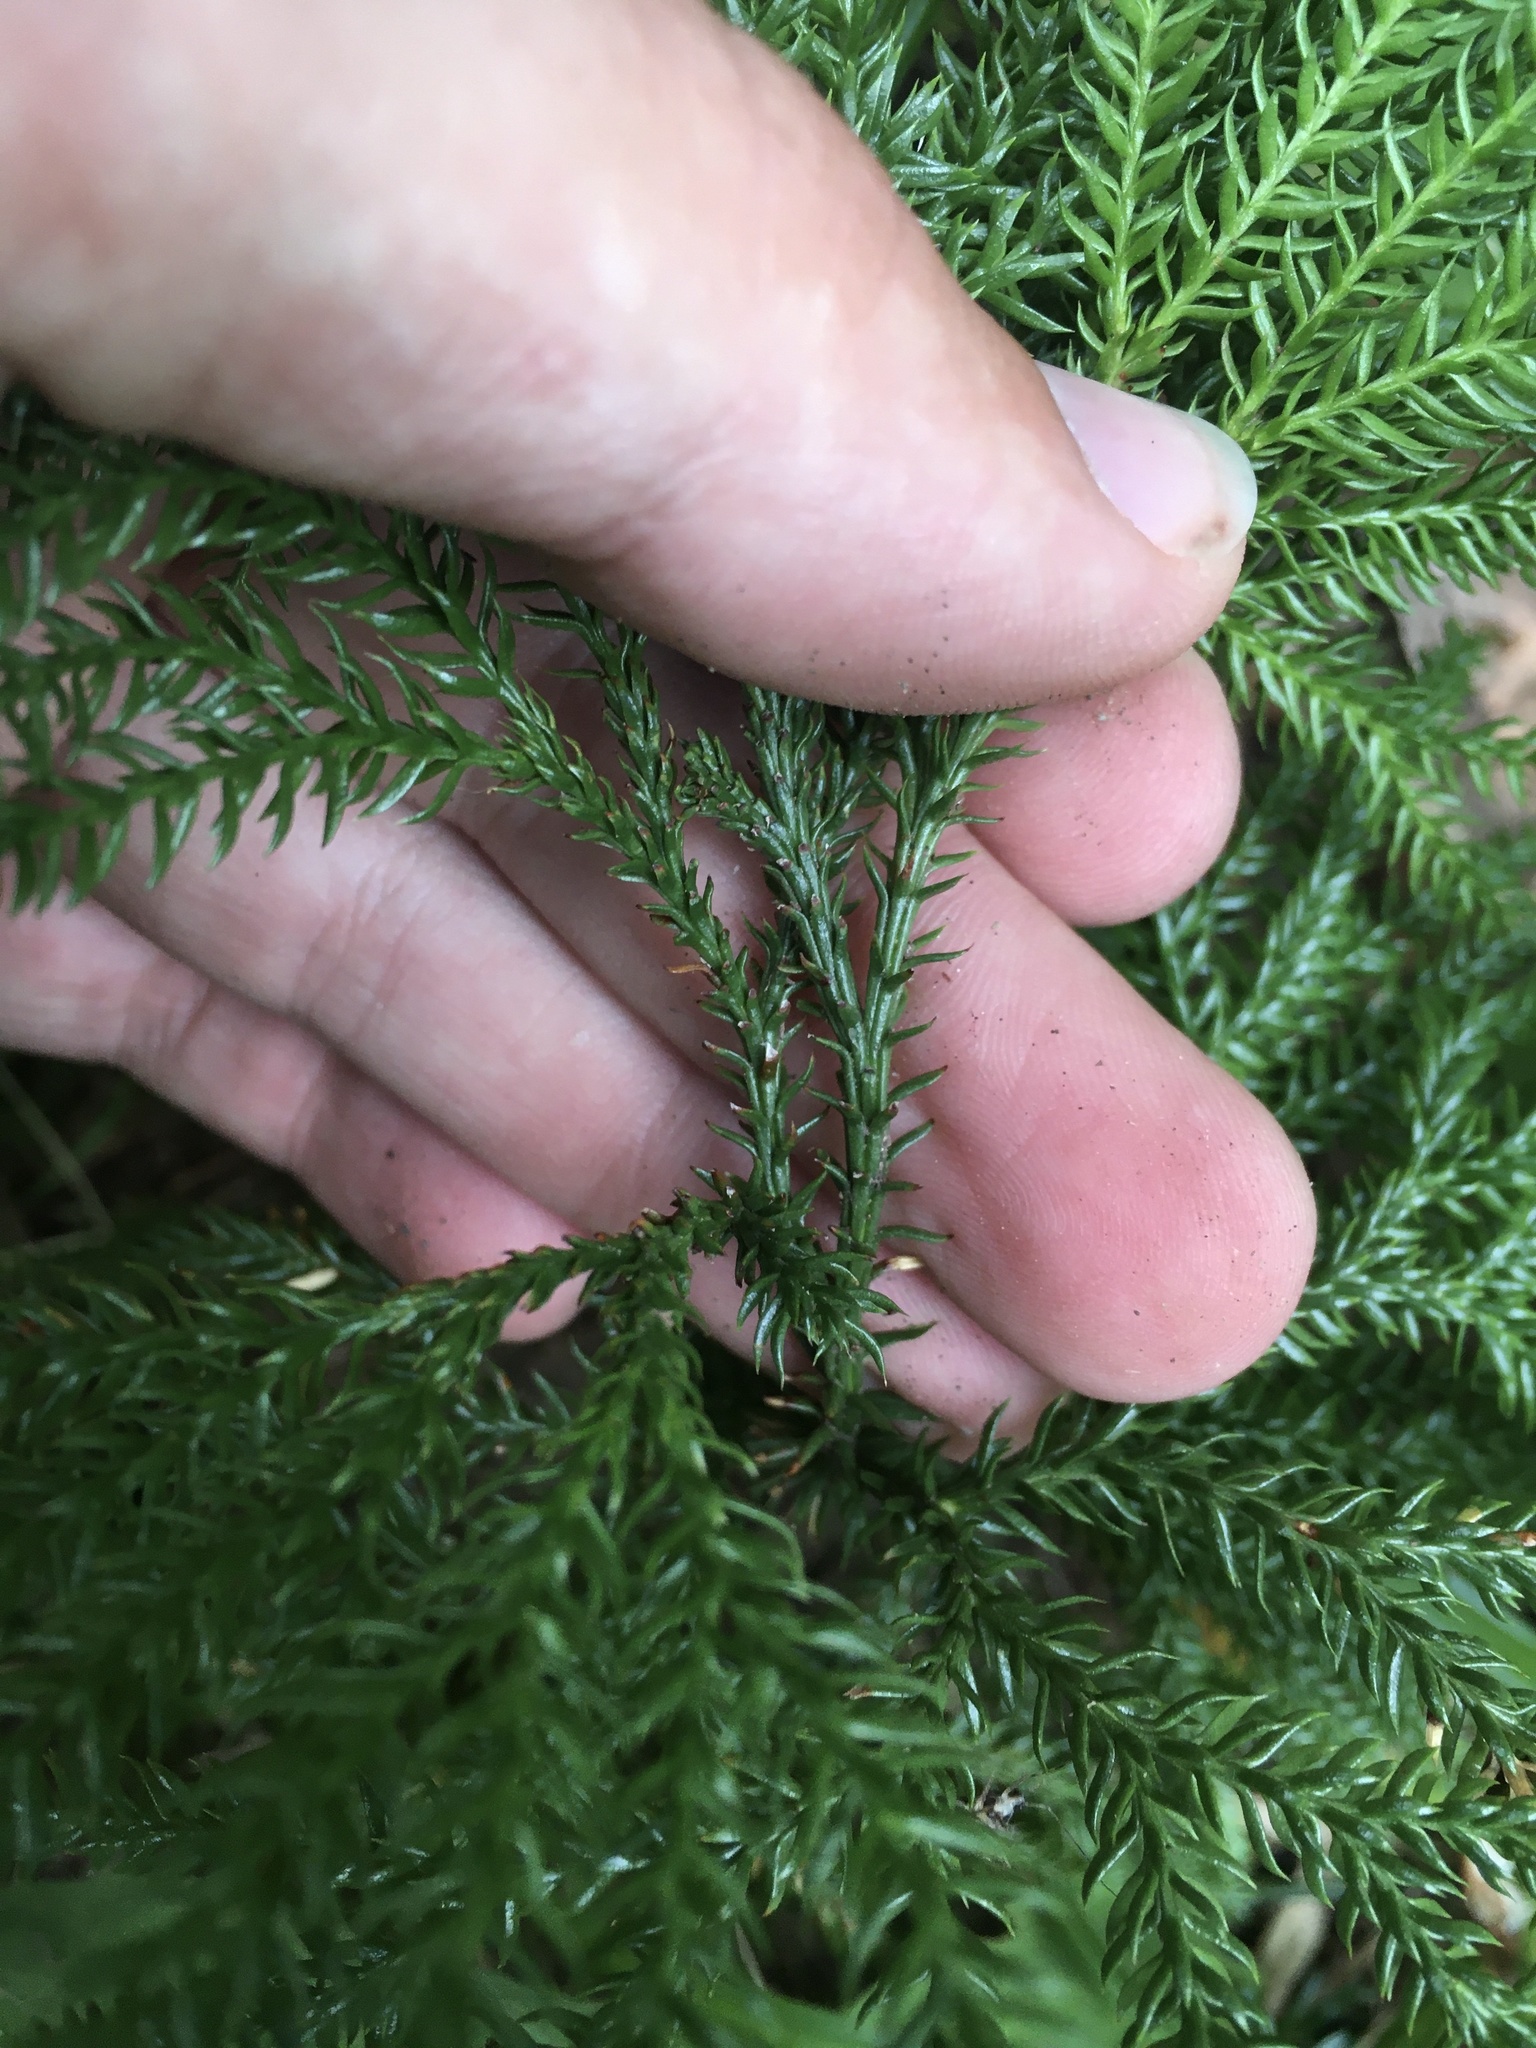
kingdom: Plantae
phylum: Tracheophyta
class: Lycopodiopsida
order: Lycopodiales
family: Lycopodiaceae
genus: Dendrolycopodium
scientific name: Dendrolycopodium dendroideum
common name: Northern tree-clubmoss
